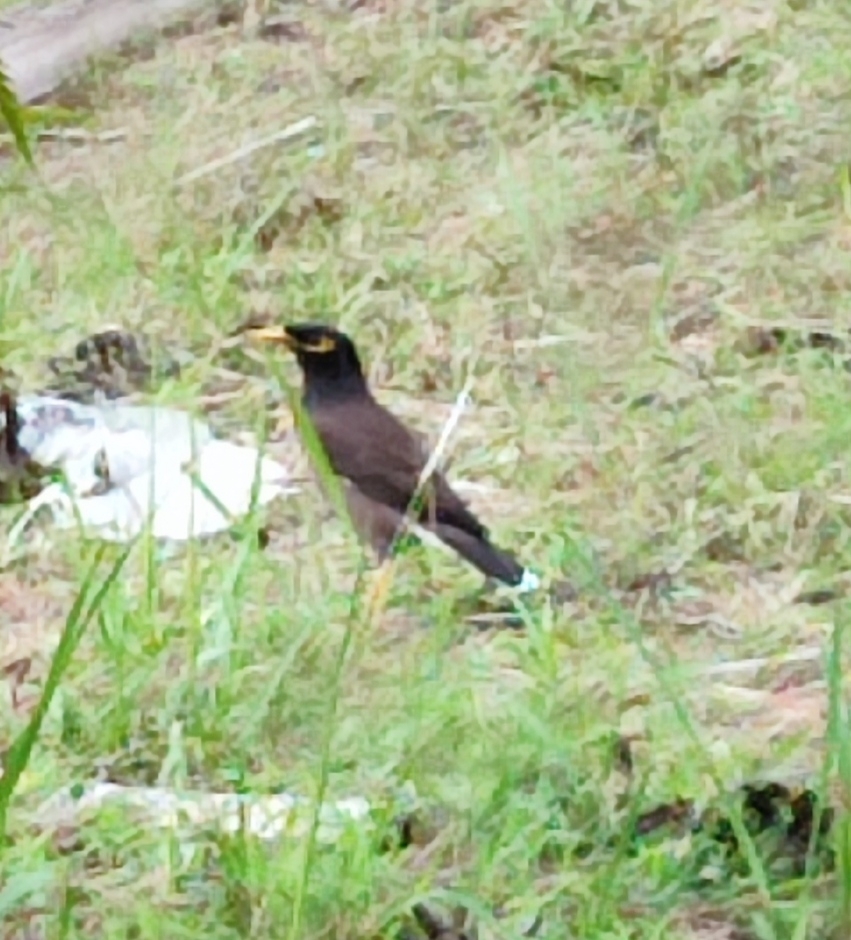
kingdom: Animalia
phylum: Chordata
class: Aves
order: Passeriformes
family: Sturnidae
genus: Acridotheres
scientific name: Acridotheres tristis
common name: Common myna
